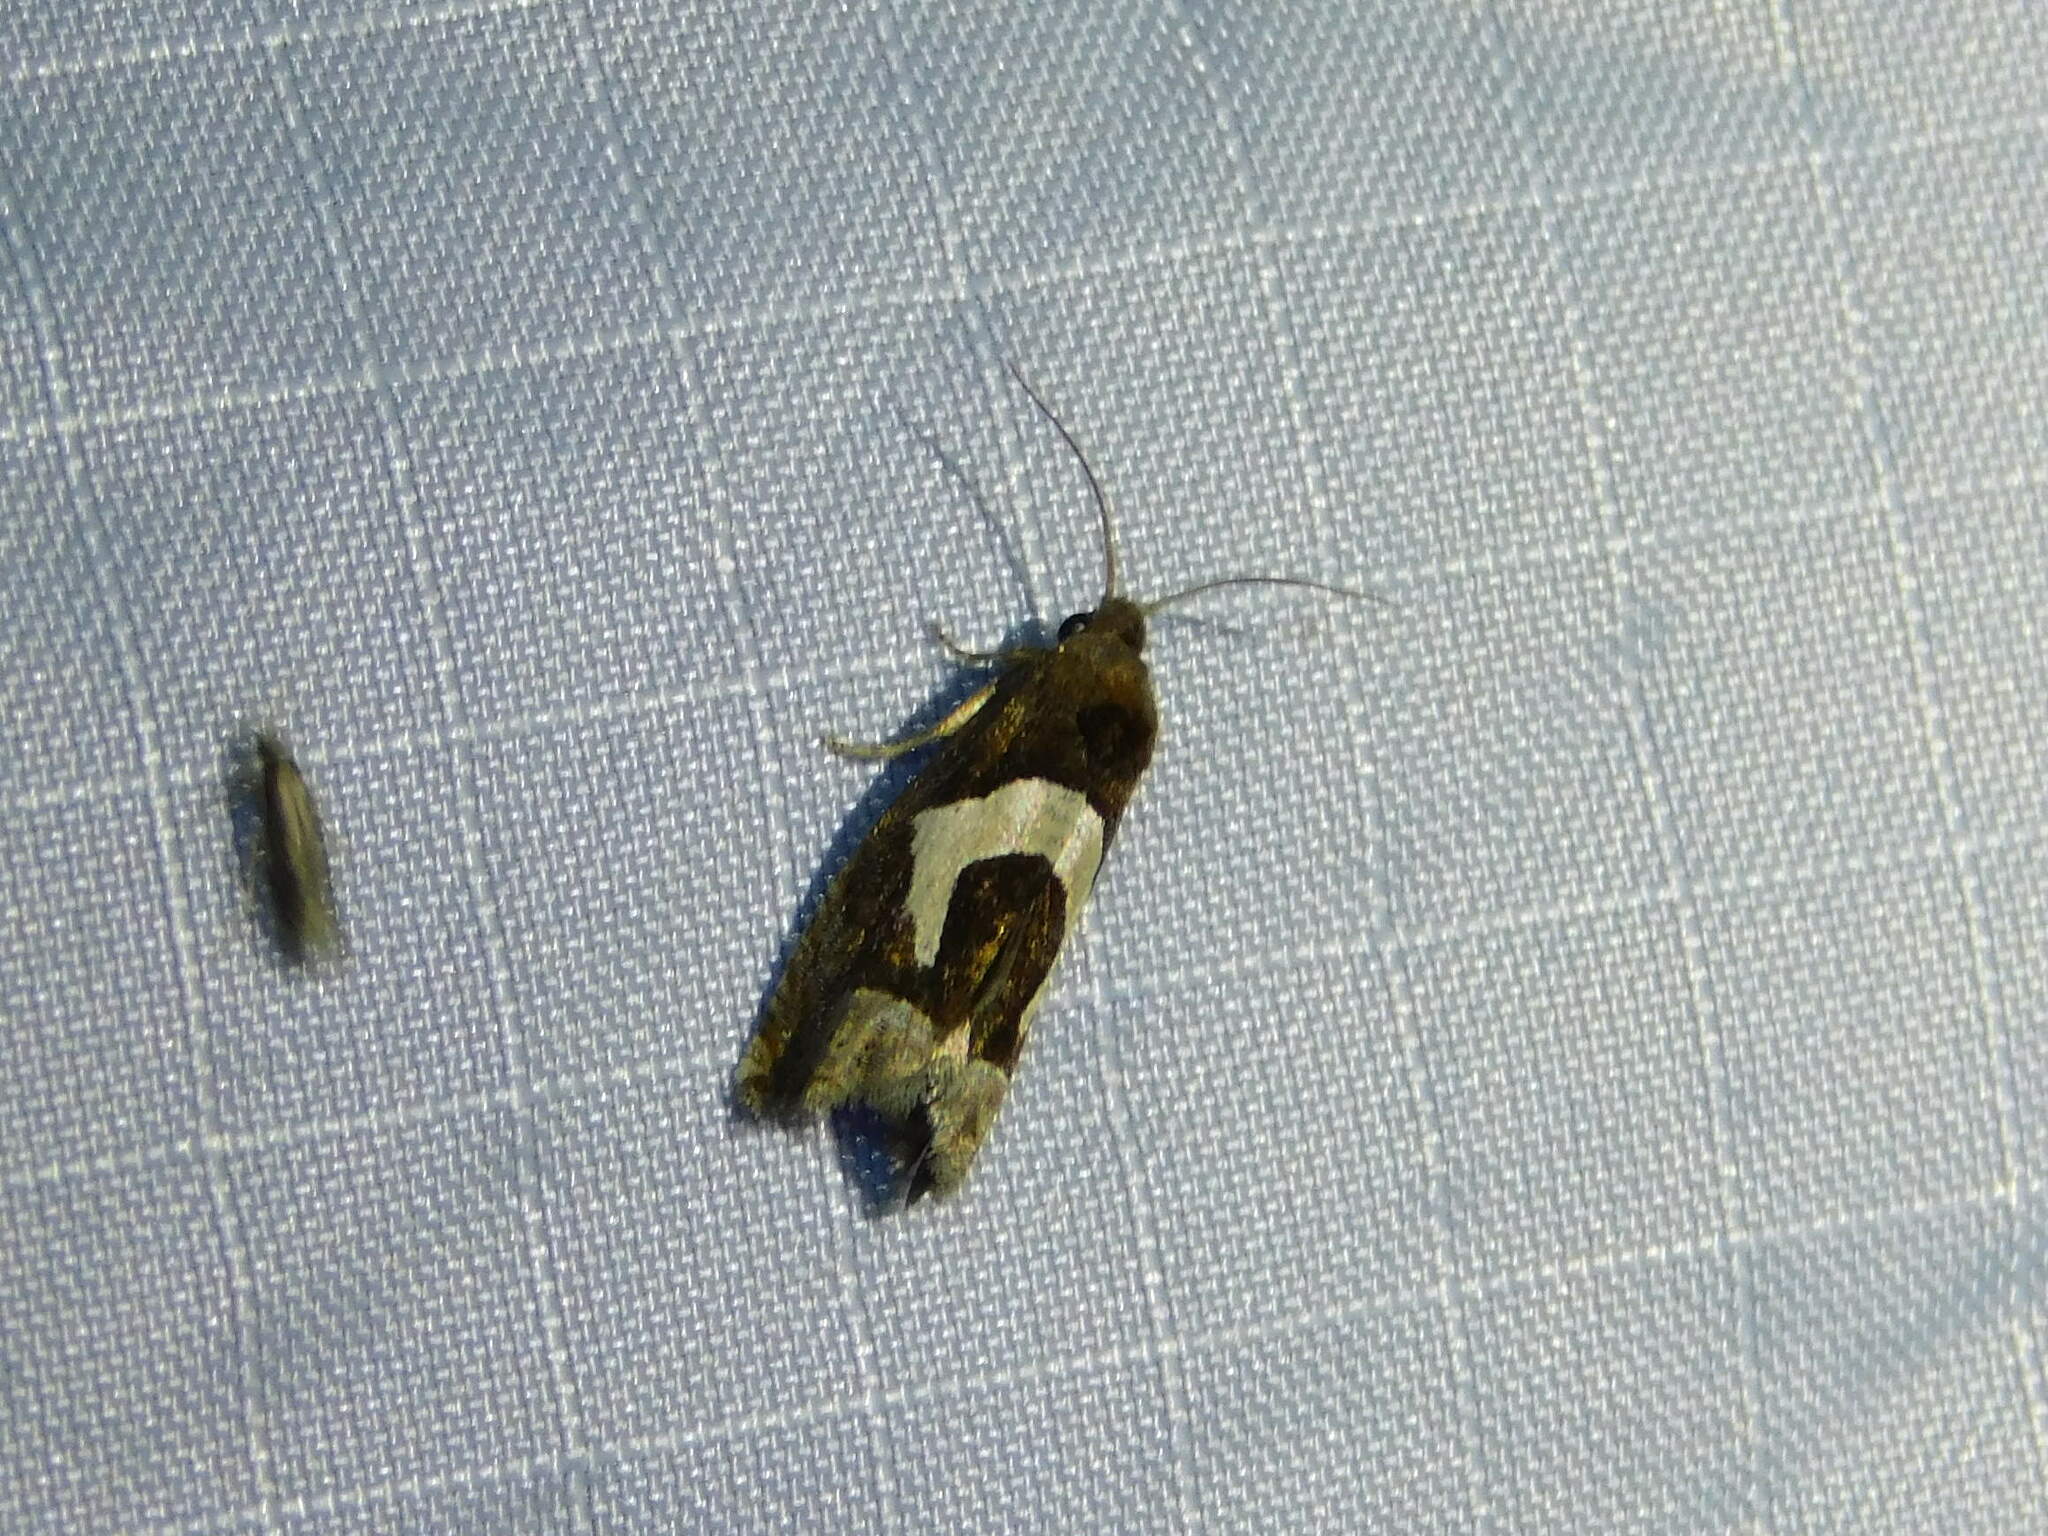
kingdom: Animalia
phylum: Arthropoda
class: Insecta
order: Lepidoptera
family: Tortricidae
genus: Epiblema
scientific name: Epiblema foenella
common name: White-foot bell
